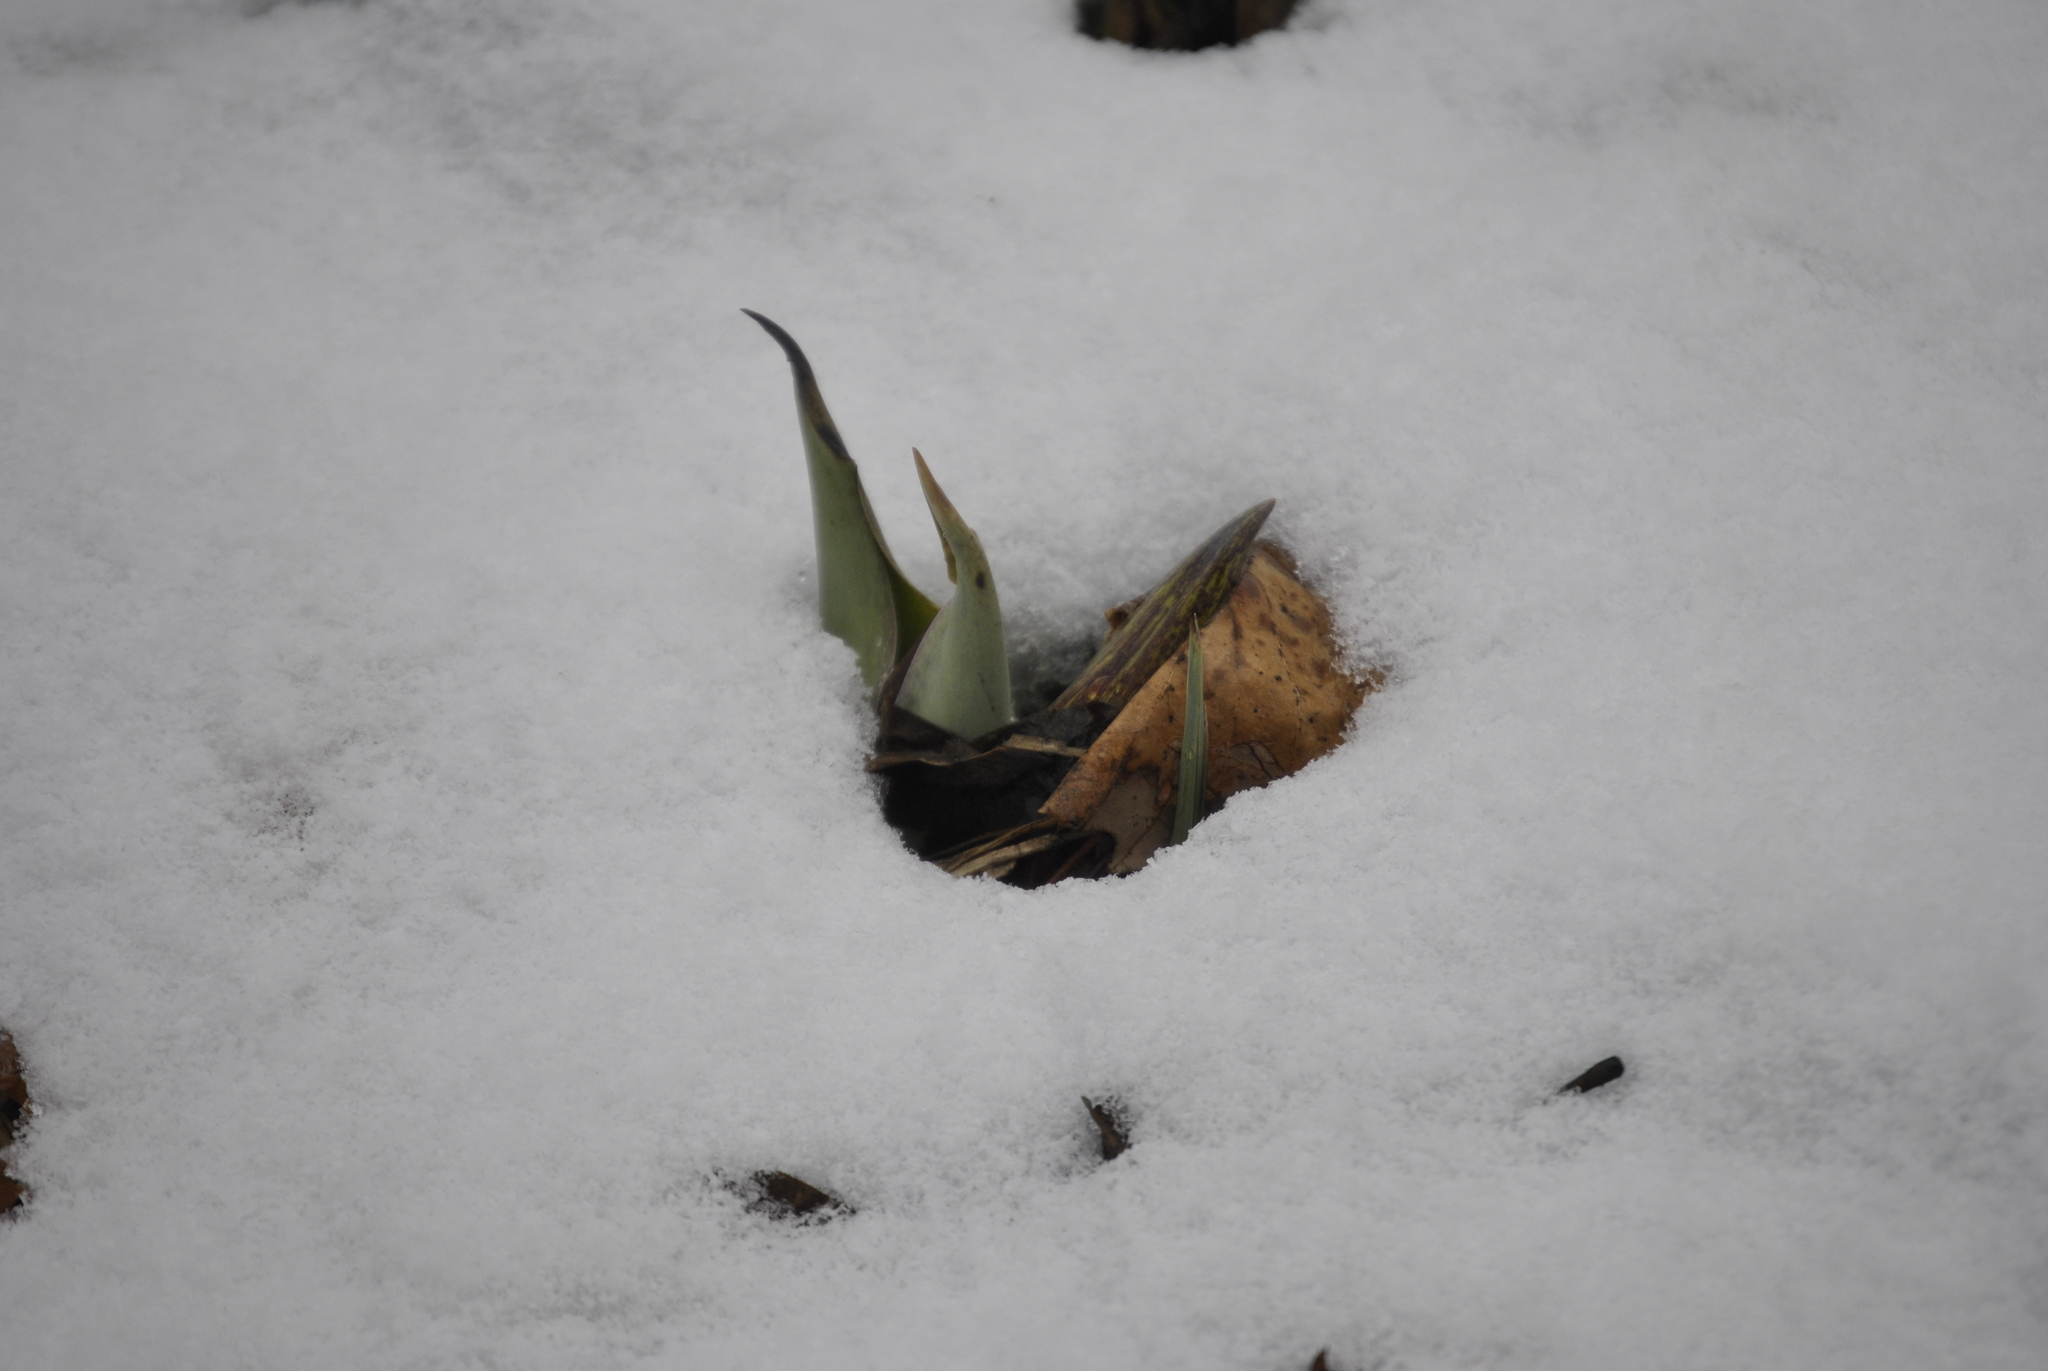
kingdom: Plantae
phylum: Tracheophyta
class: Liliopsida
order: Alismatales
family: Araceae
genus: Symplocarpus
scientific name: Symplocarpus foetidus
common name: Eastern skunk cabbage
